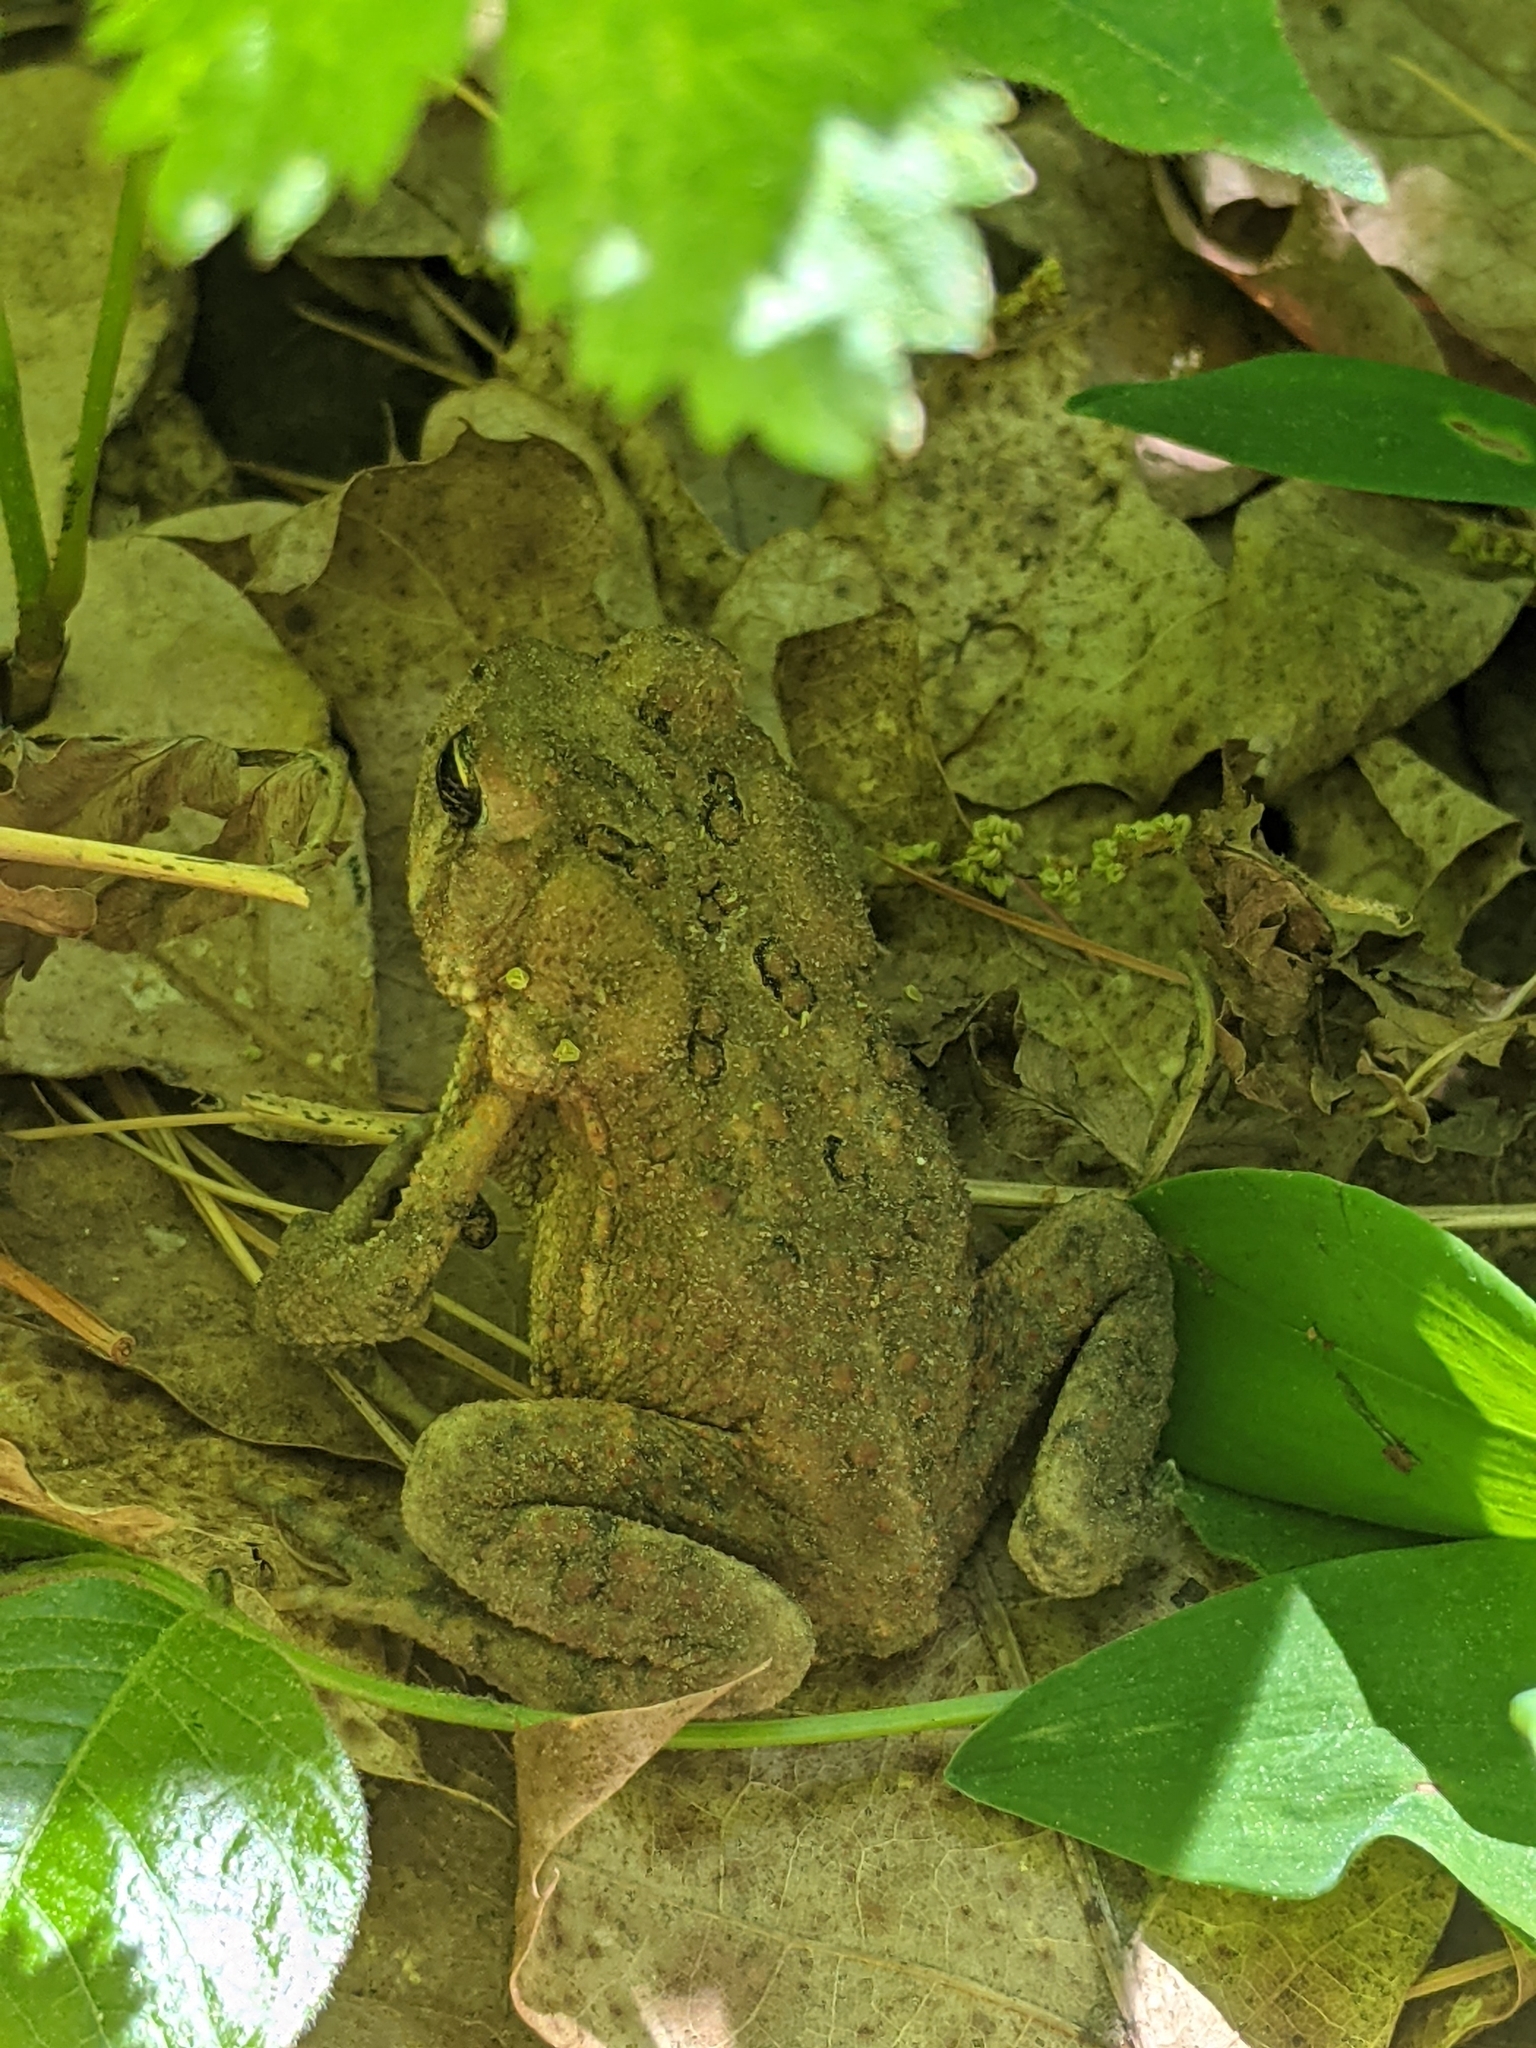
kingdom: Animalia
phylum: Chordata
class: Amphibia
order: Anura
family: Bufonidae
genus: Anaxyrus
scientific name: Anaxyrus americanus
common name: American toad
